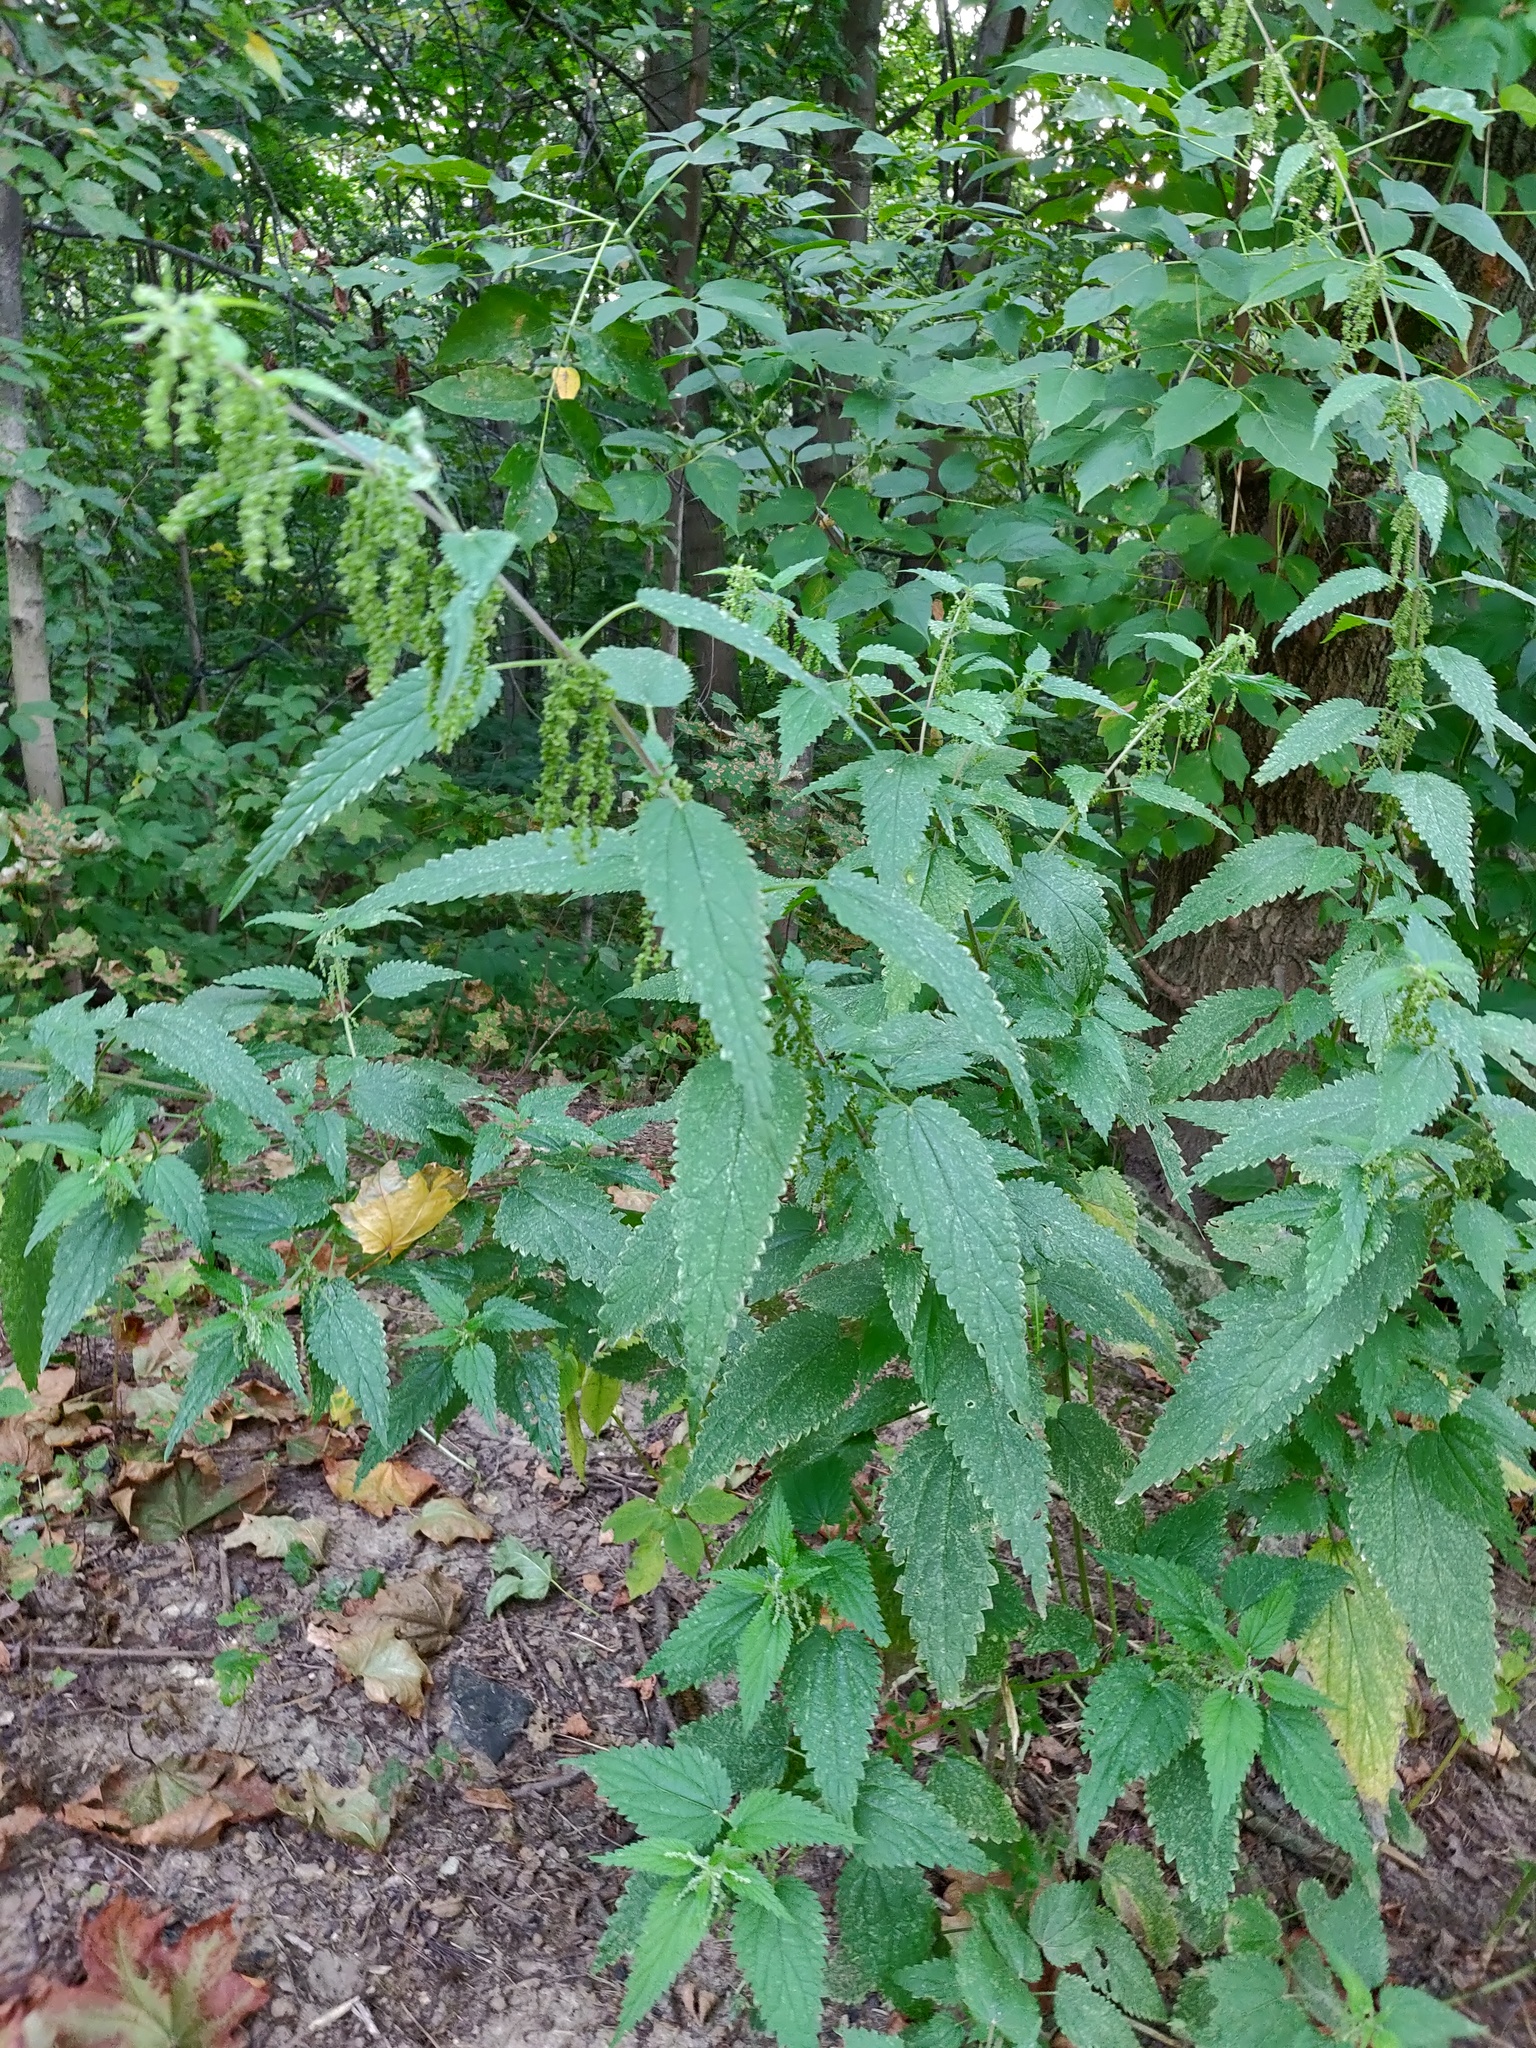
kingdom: Plantae
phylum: Tracheophyta
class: Magnoliopsida
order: Rosales
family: Urticaceae
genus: Urtica
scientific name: Urtica dioica
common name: Common nettle
